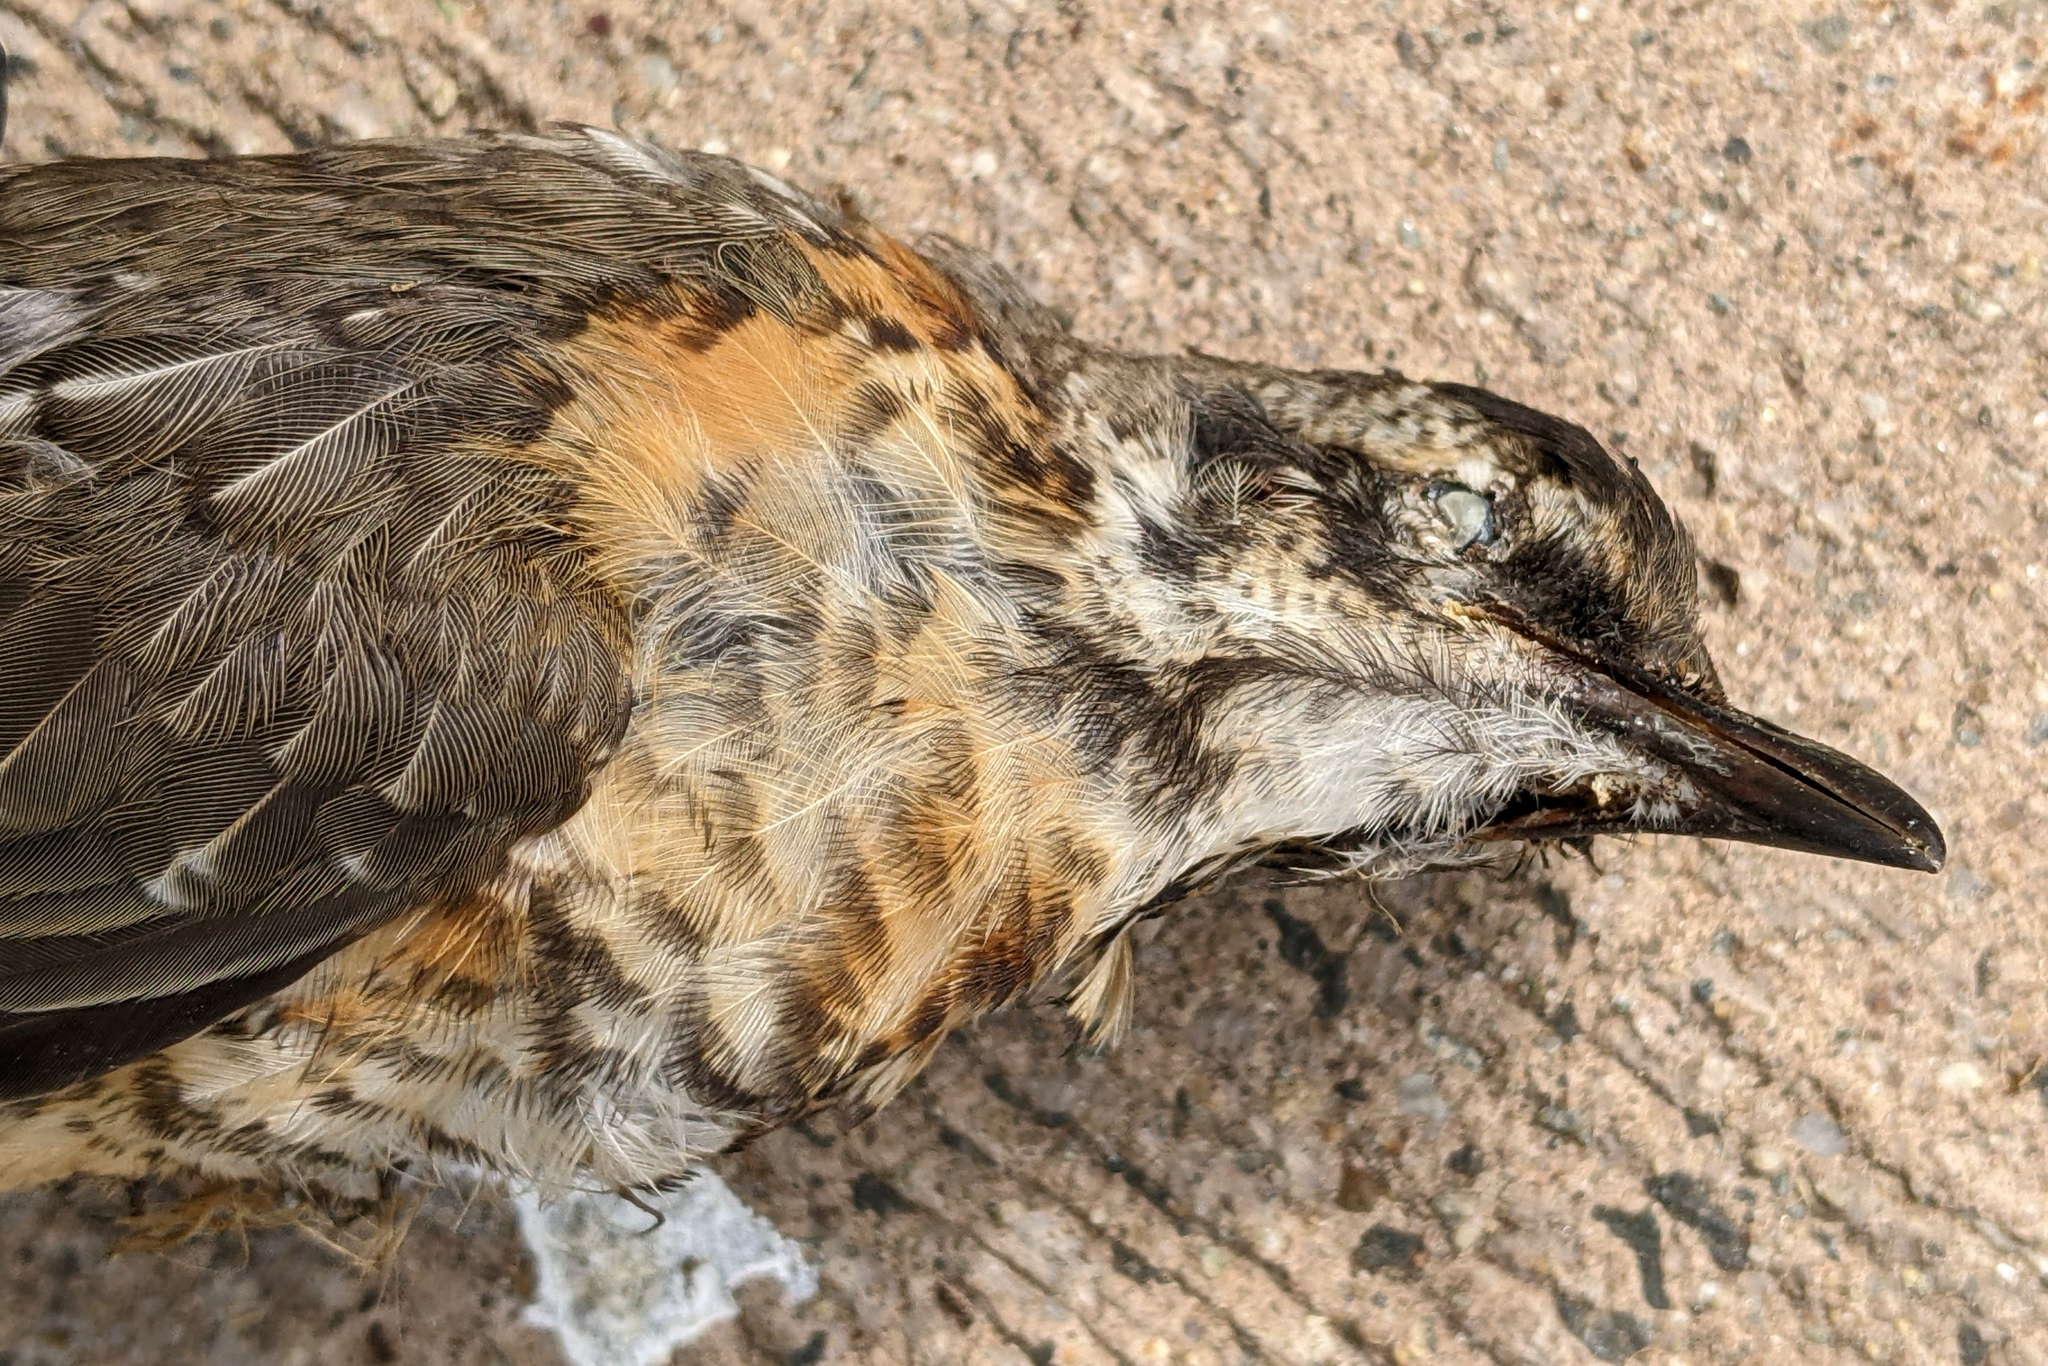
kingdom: Animalia
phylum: Chordata
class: Aves
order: Passeriformes
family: Turdidae
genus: Turdus
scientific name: Turdus migratorius
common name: American robin
